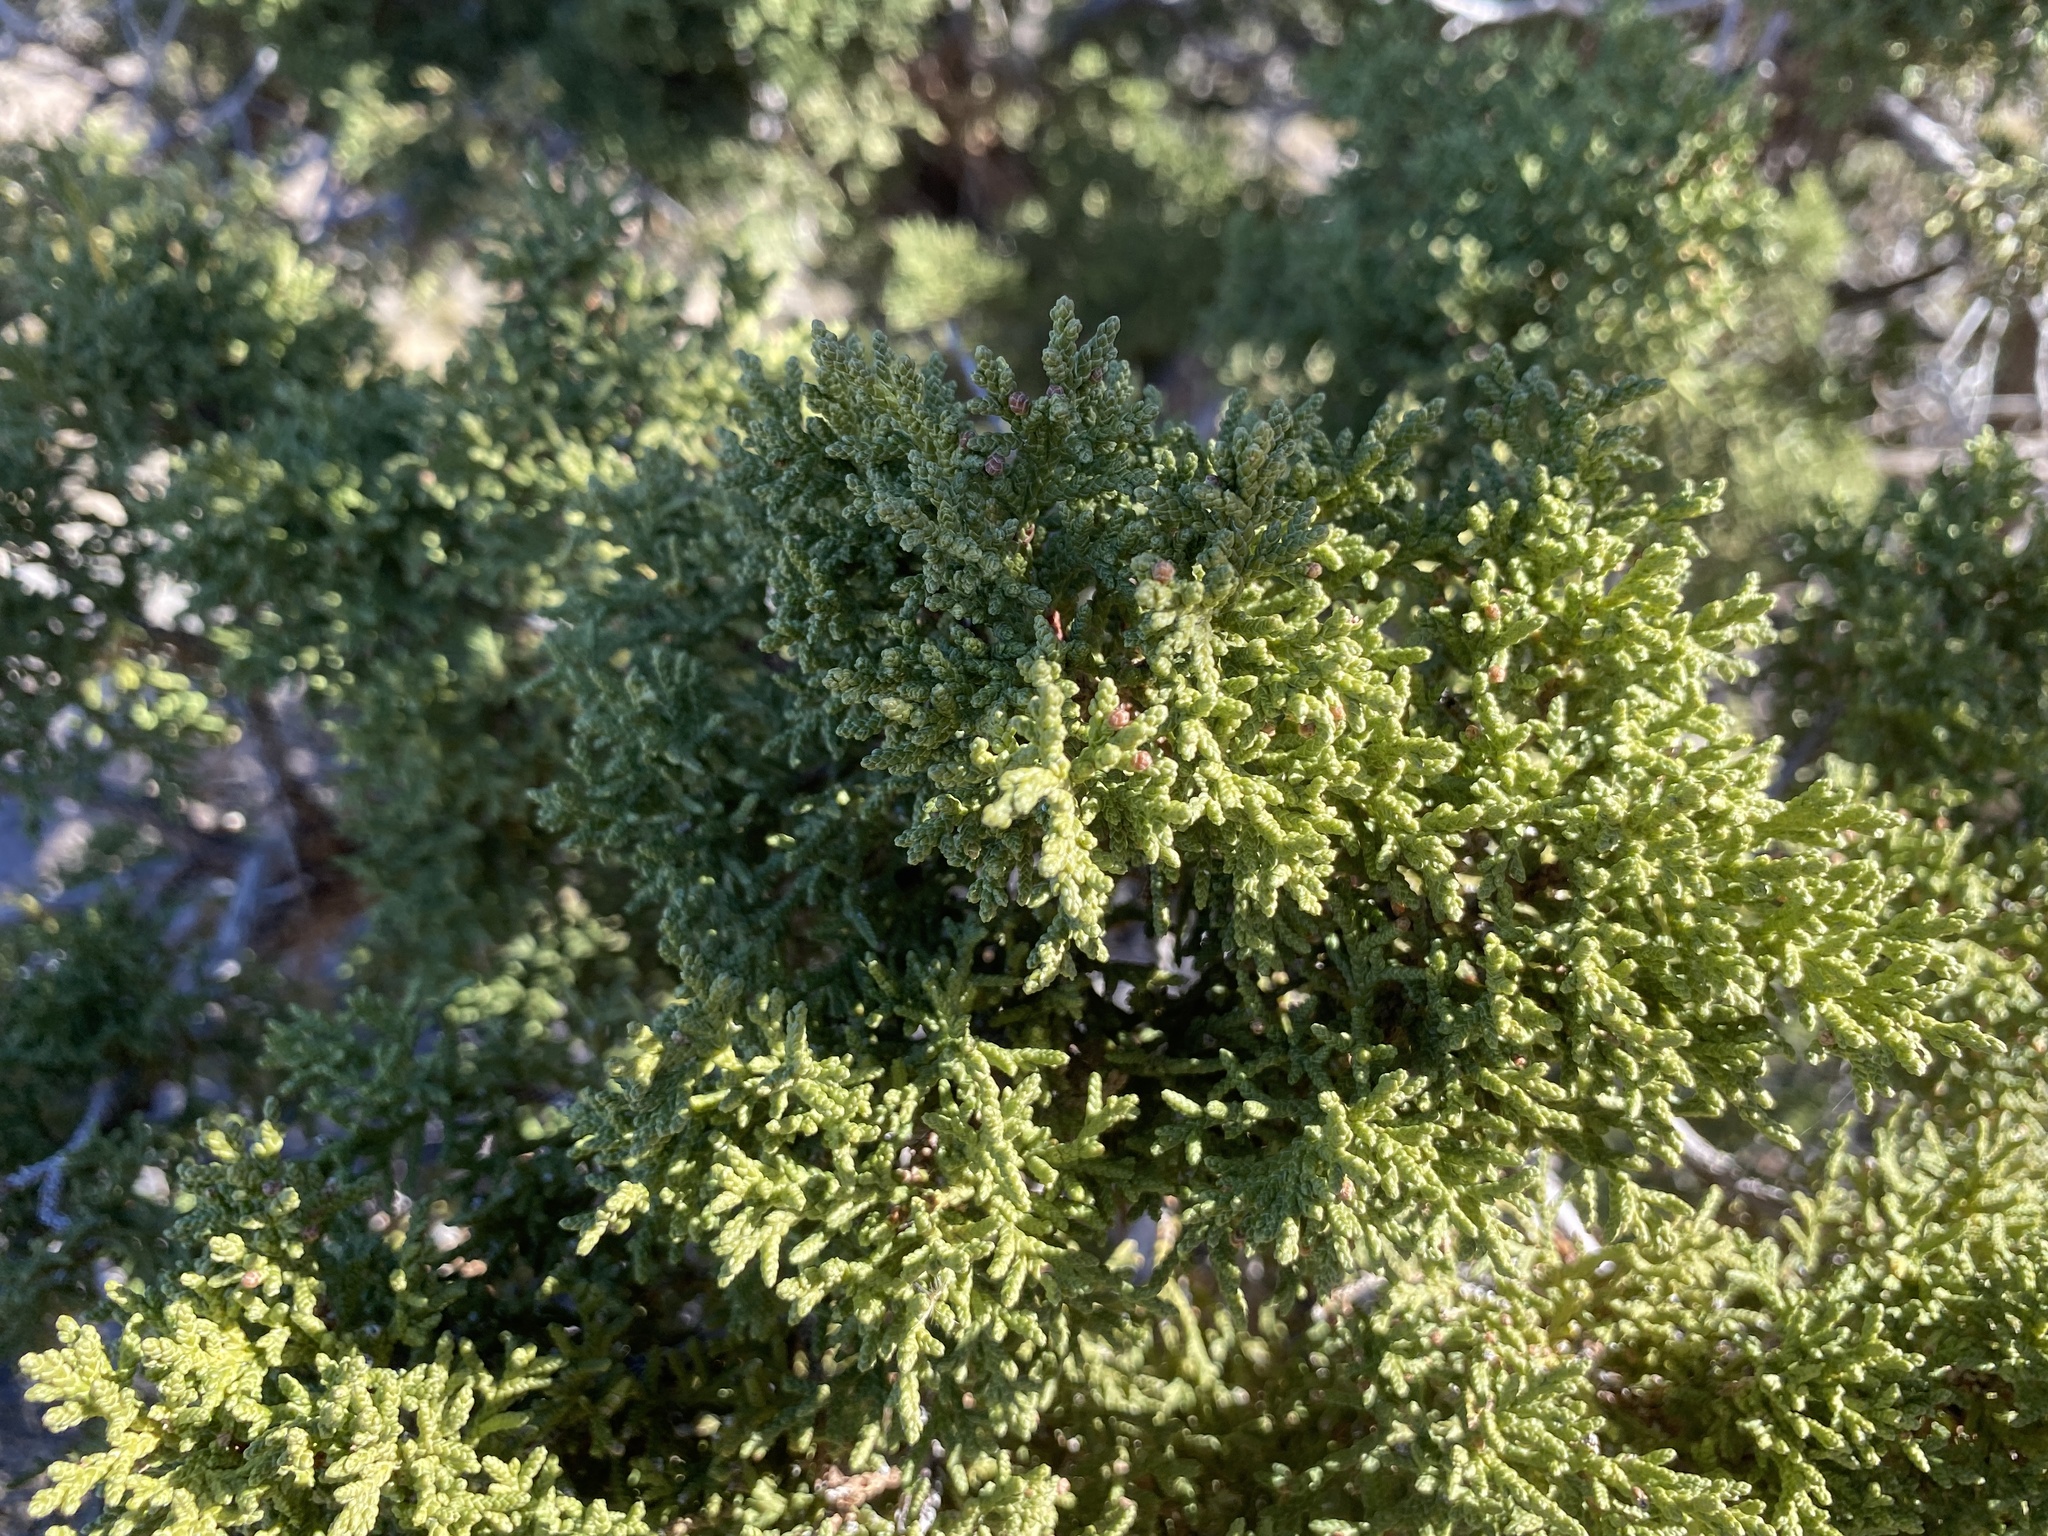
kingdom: Plantae
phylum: Tracheophyta
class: Pinopsida
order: Pinales
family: Cupressaceae
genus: Juniperus
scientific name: Juniperus monosperma
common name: One-seed juniper
